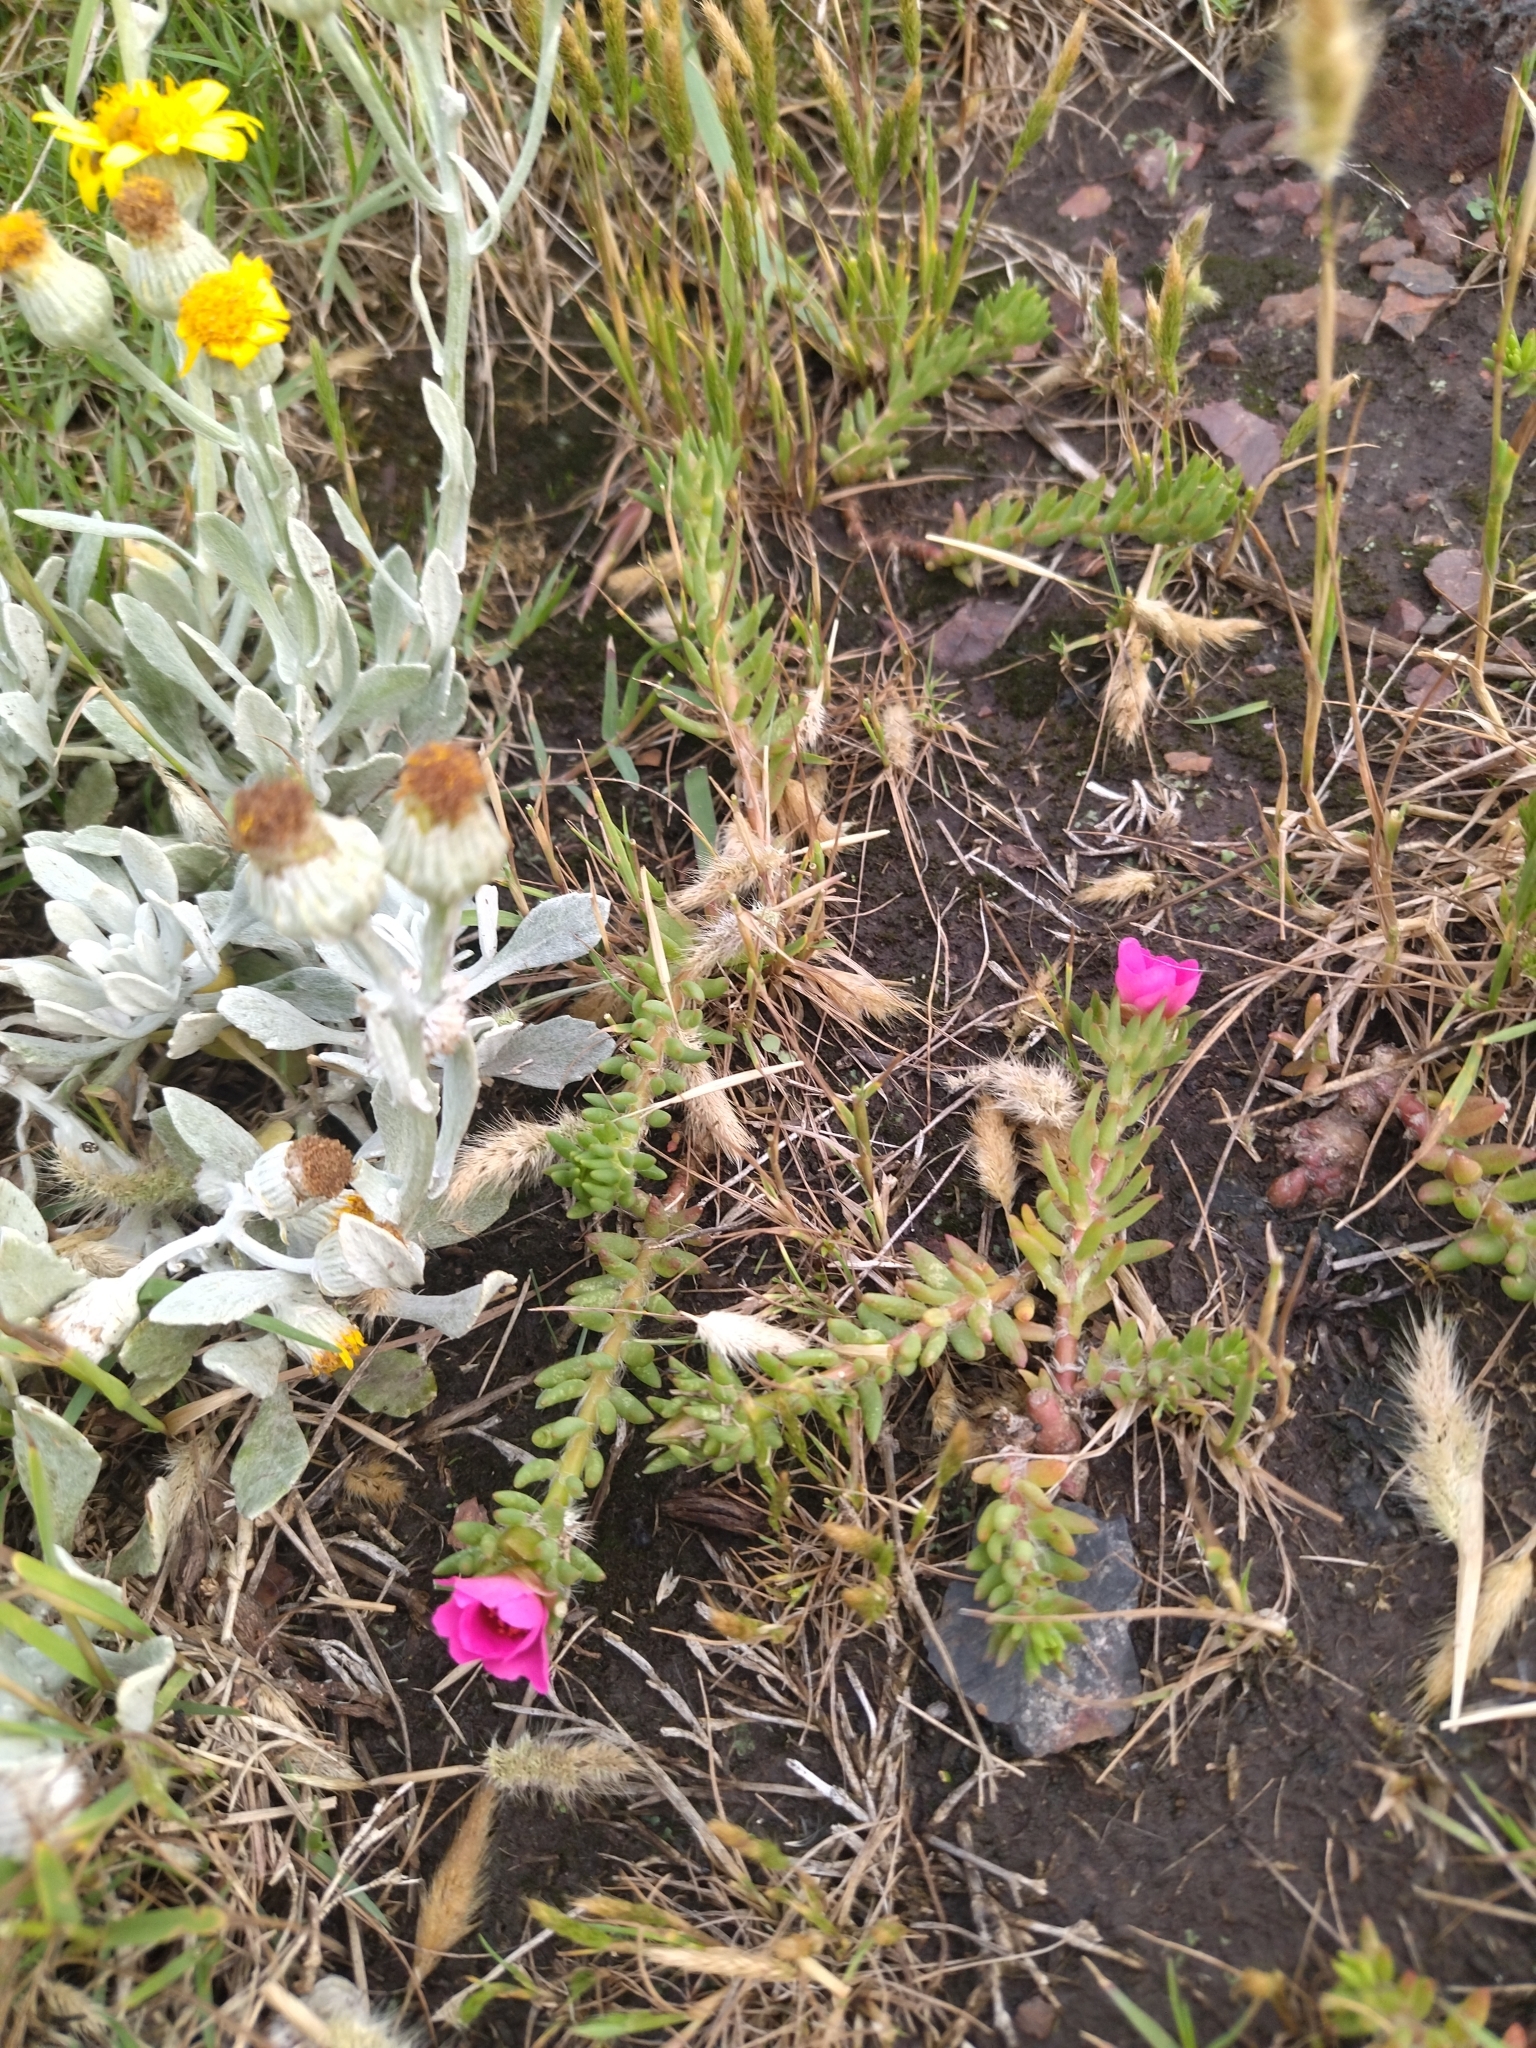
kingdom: Plantae
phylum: Tracheophyta
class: Magnoliopsida
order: Caryophyllales
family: Portulacaceae
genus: Portulaca
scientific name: Portulaca grandiflora
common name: Moss-rose
